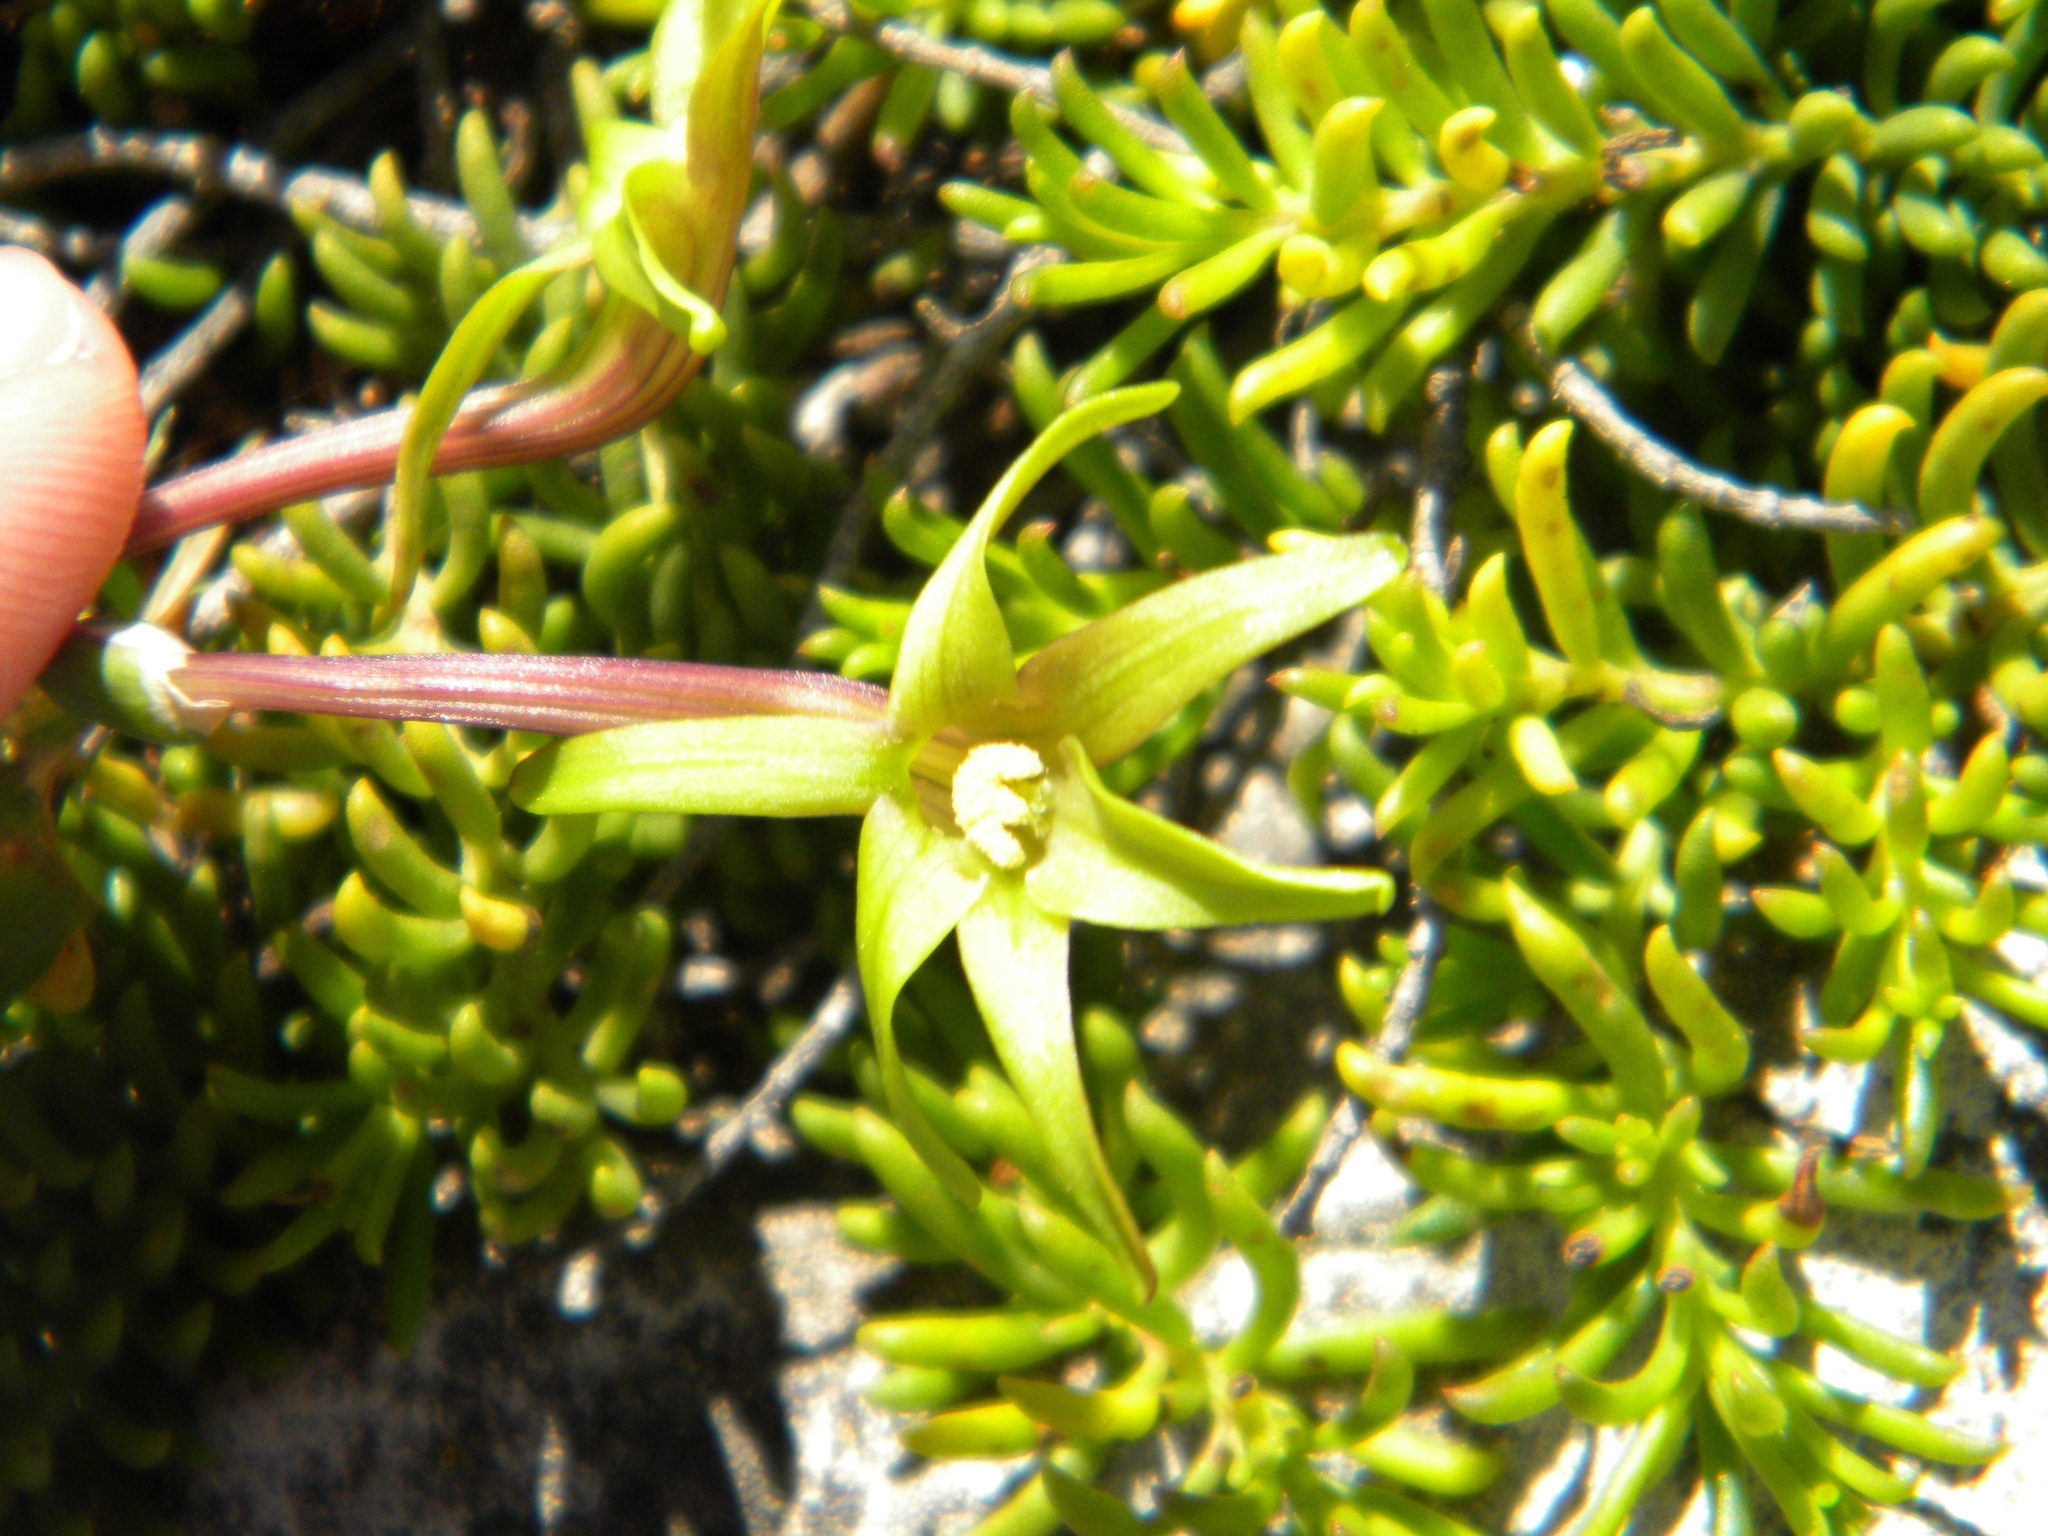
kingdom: Plantae
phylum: Tracheophyta
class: Liliopsida
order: Asparagales
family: Iridaceae
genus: Freesia
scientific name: Freesia viridis
